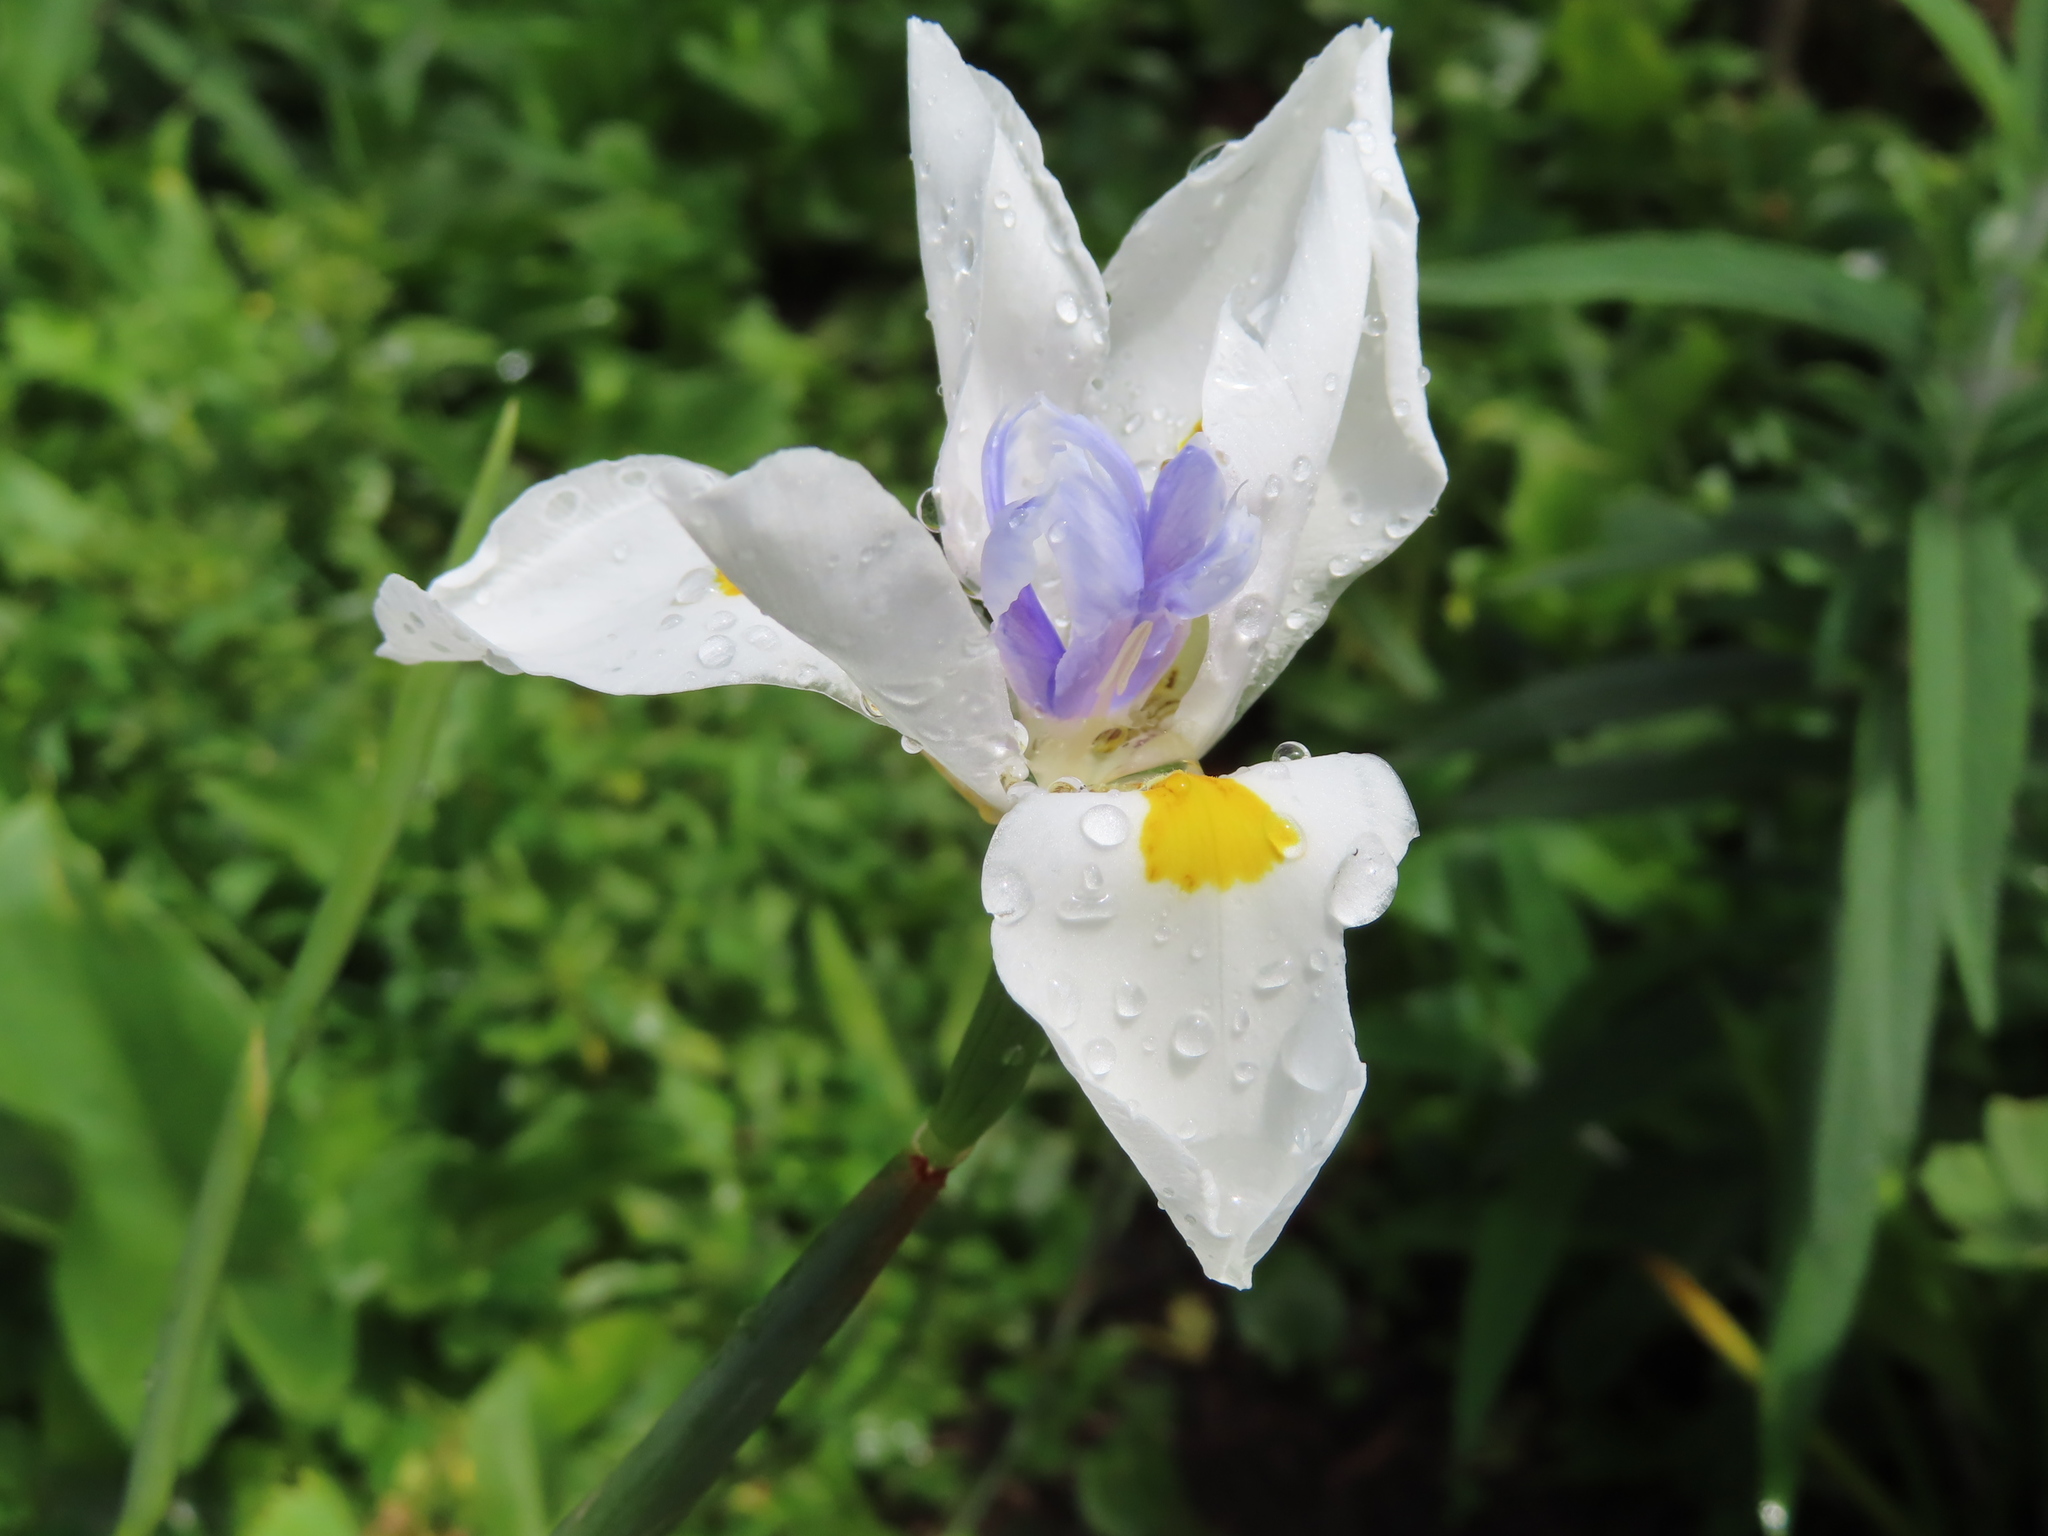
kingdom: Plantae
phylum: Tracheophyta
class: Liliopsida
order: Asparagales
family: Iridaceae
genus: Dietes
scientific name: Dietes grandiflora
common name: Wild iris
